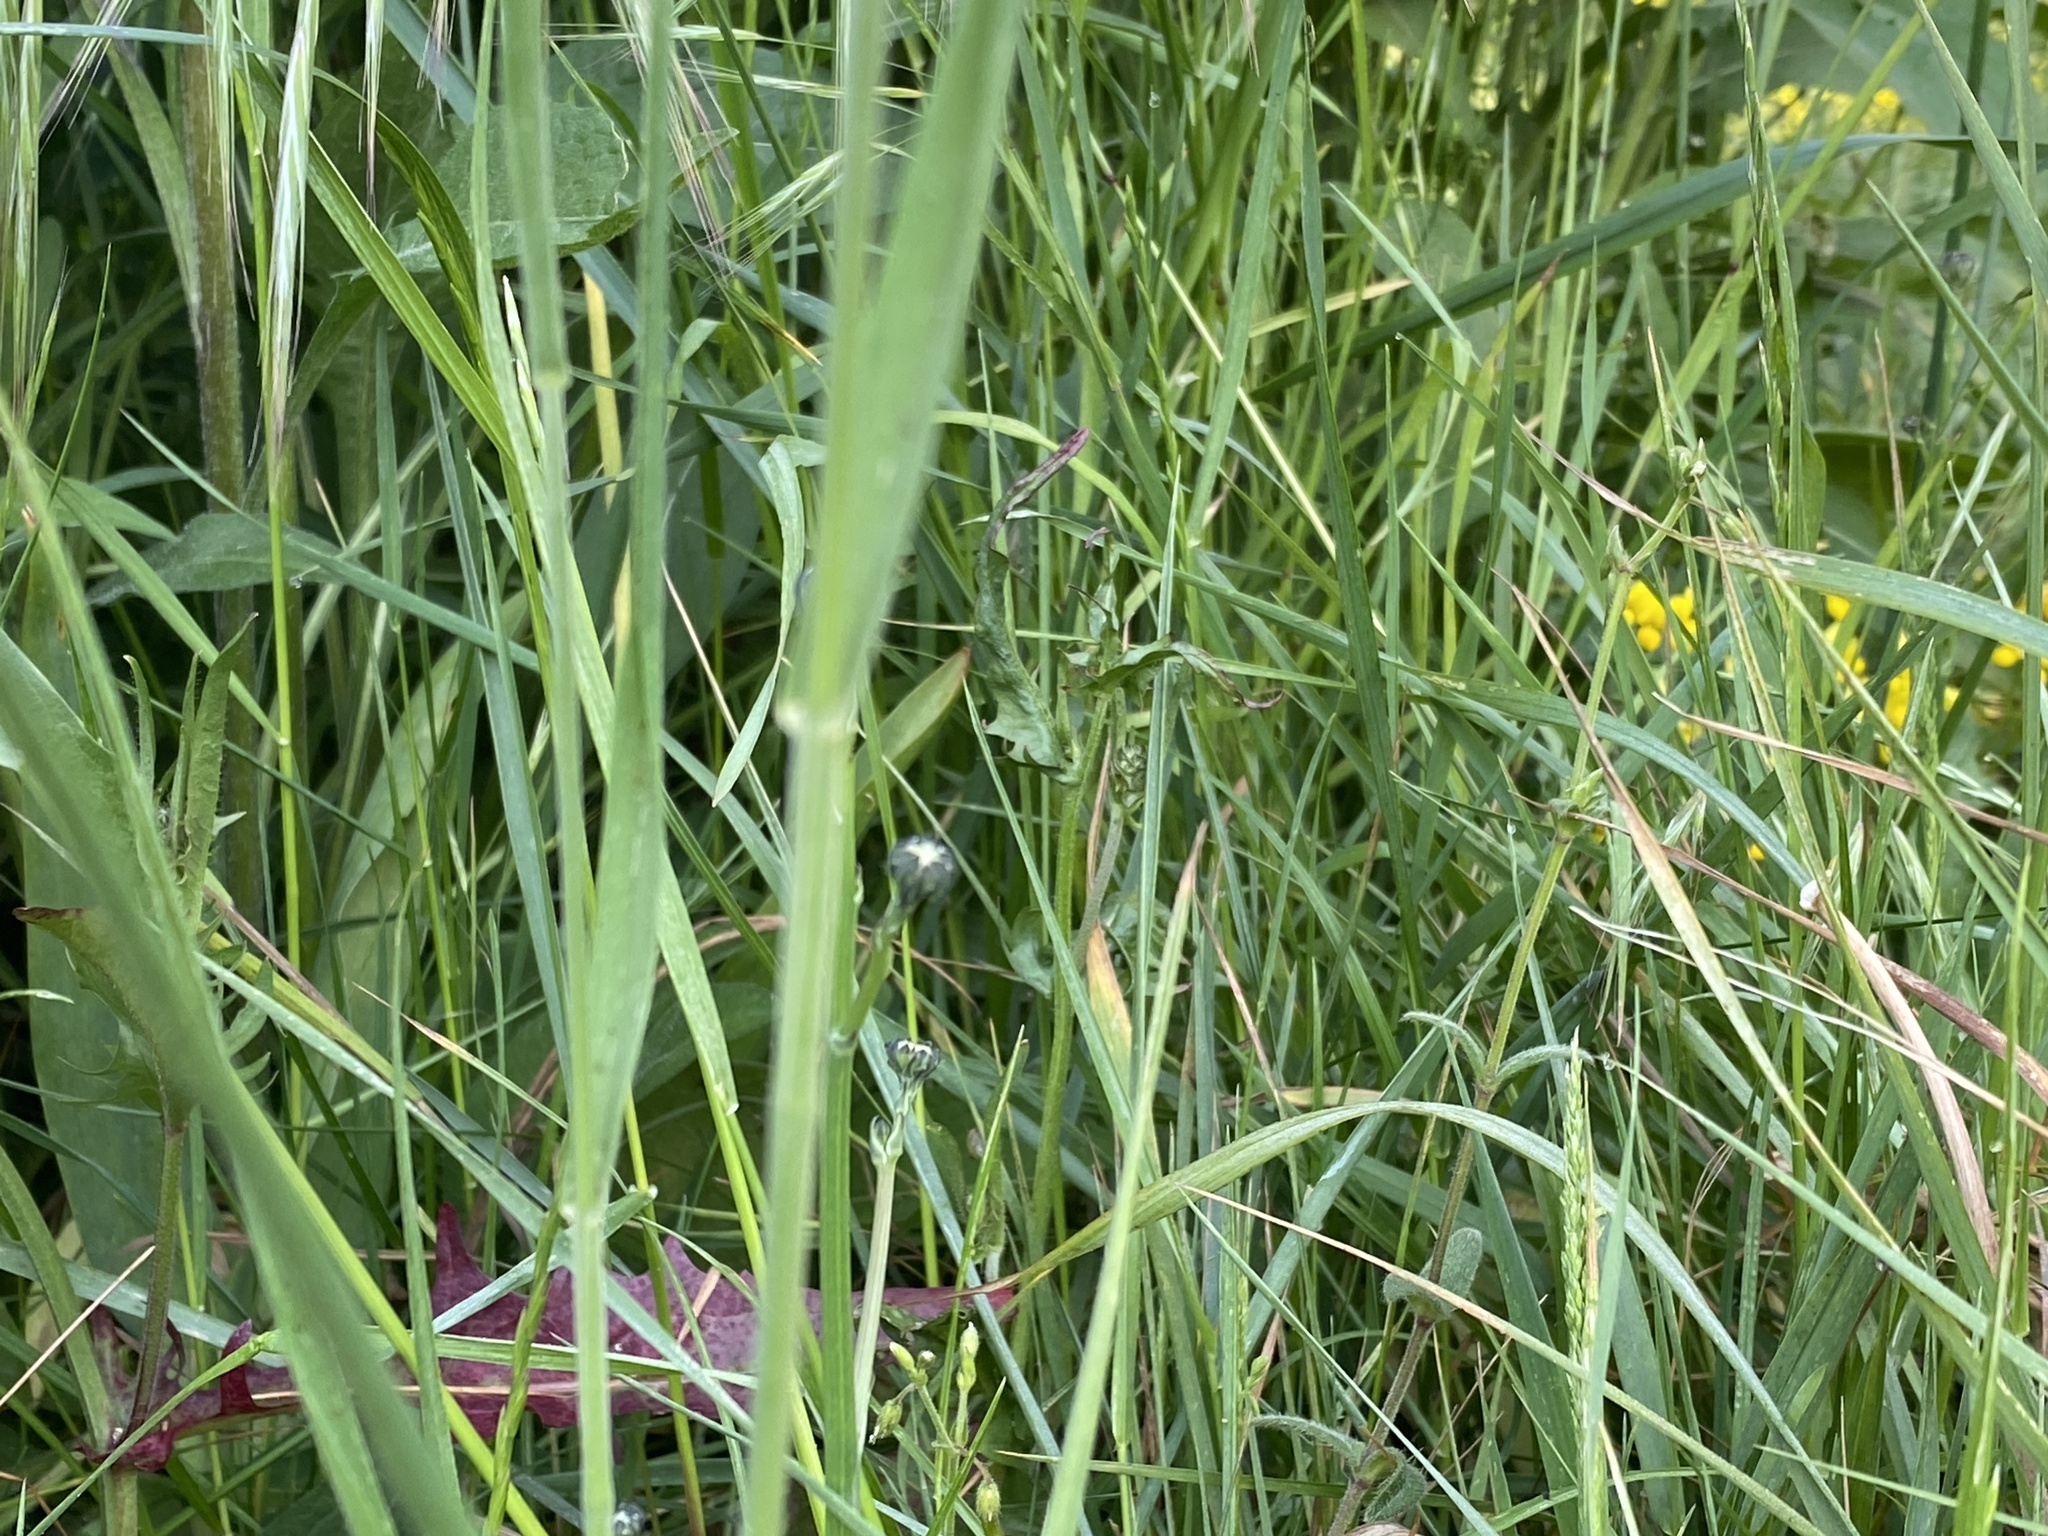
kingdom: Plantae
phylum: Tracheophyta
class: Liliopsida
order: Poales
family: Poaceae
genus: Bromus
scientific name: Bromus hordeaceus
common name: Soft brome
